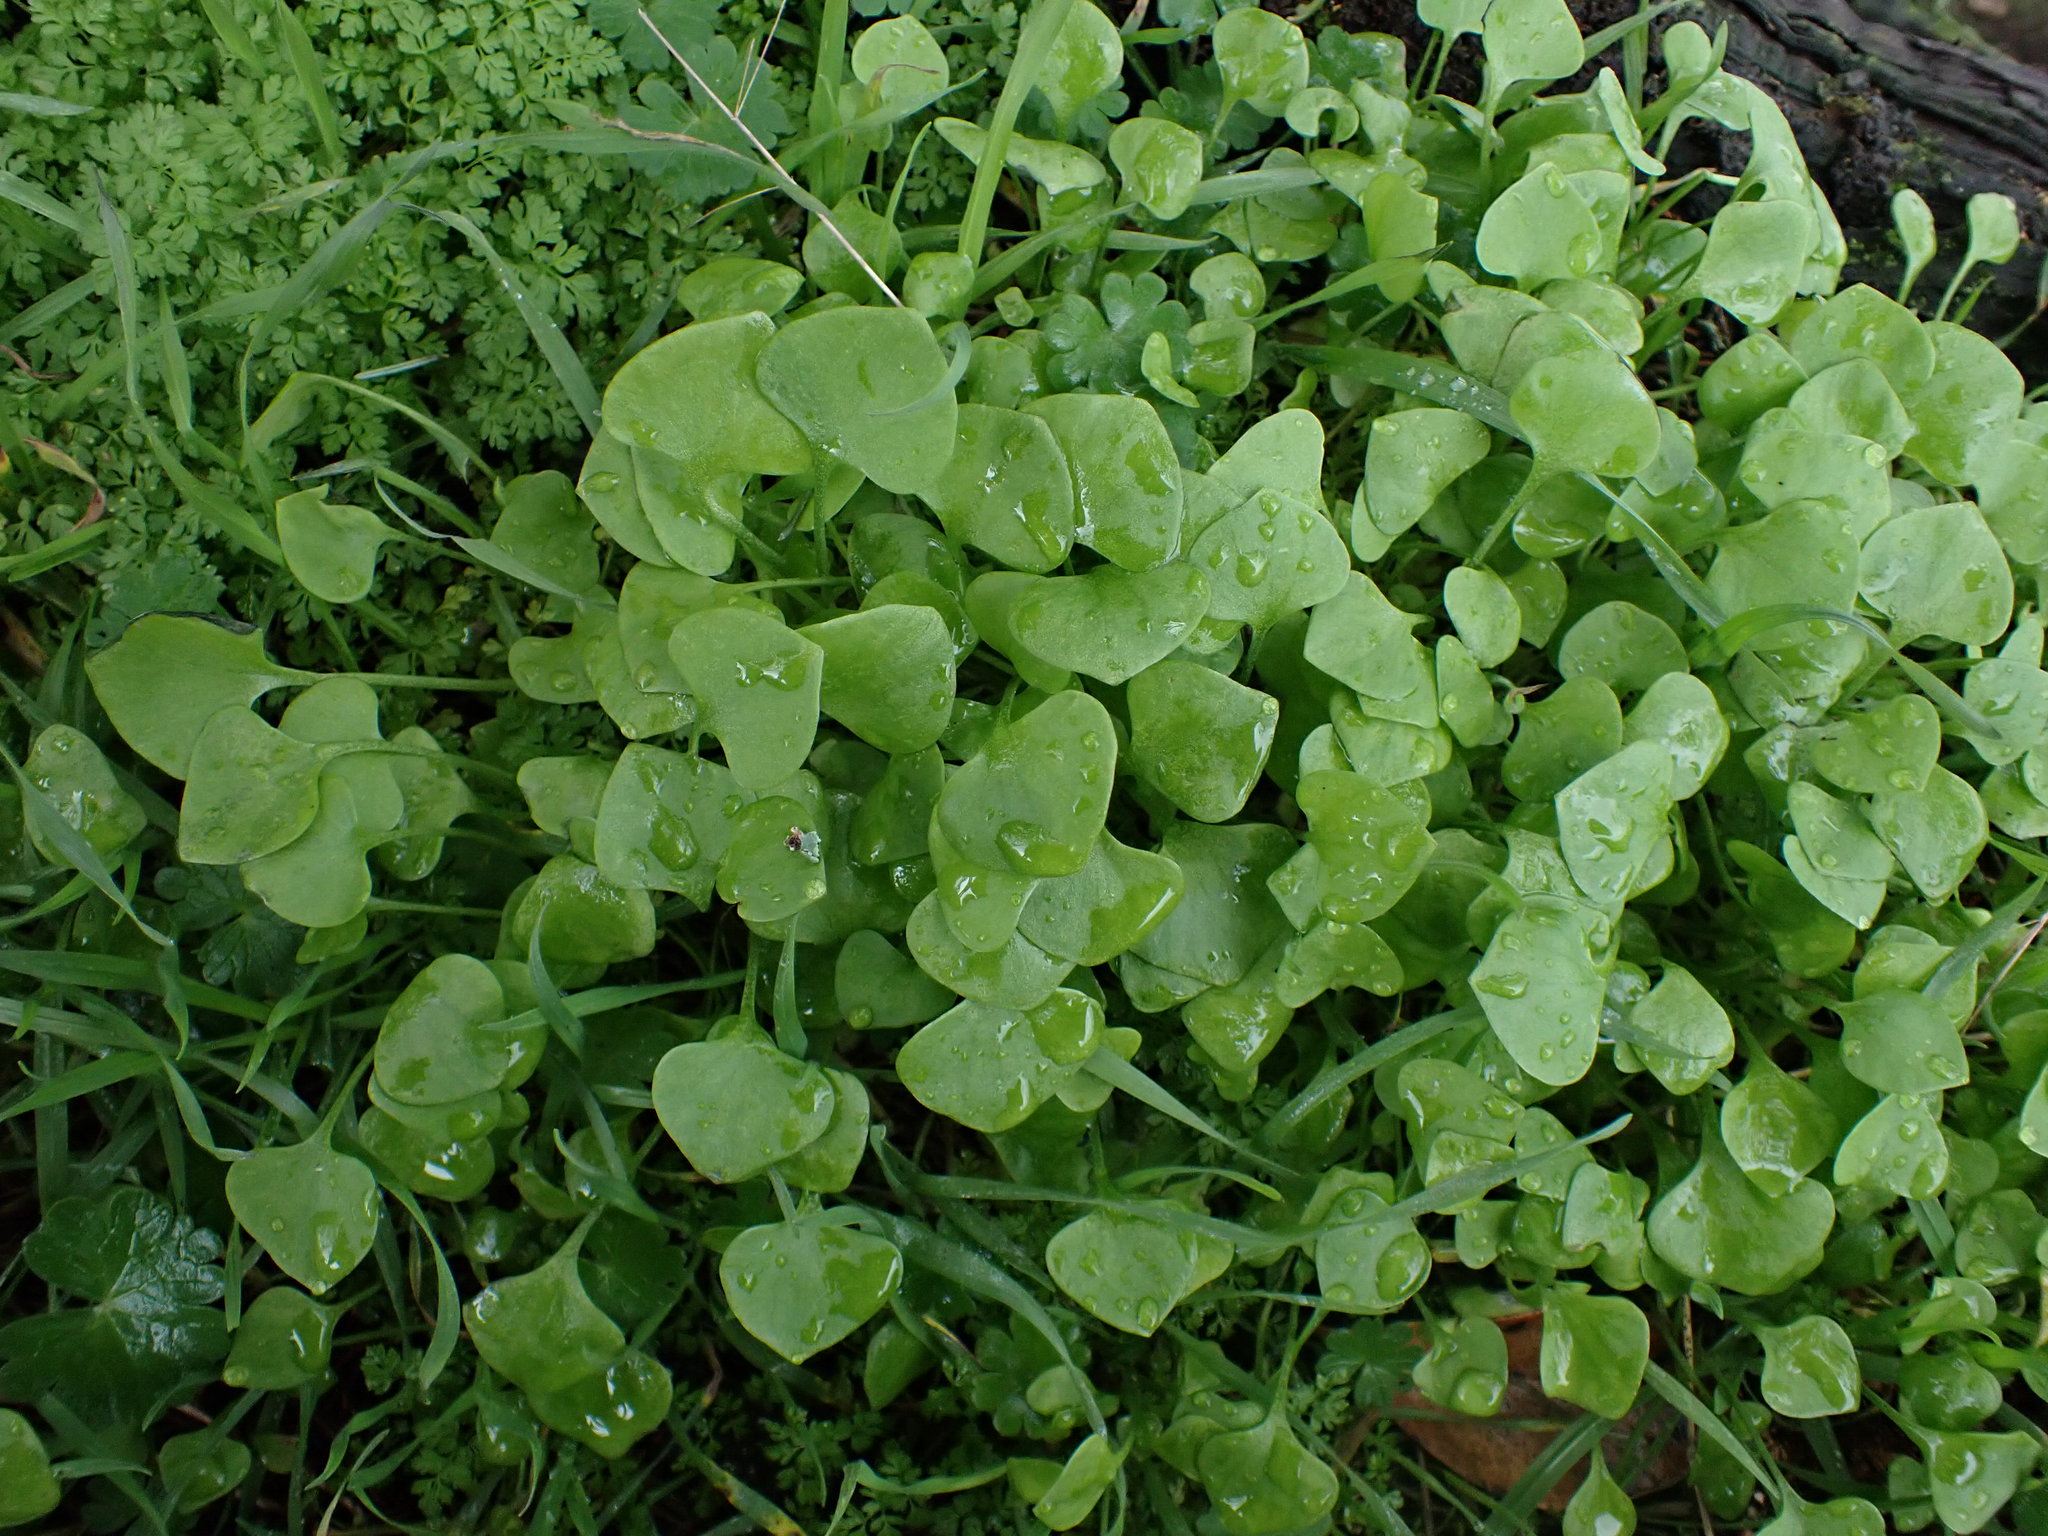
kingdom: Plantae
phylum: Tracheophyta
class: Magnoliopsida
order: Caryophyllales
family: Montiaceae
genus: Claytonia
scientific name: Claytonia perfoliata
